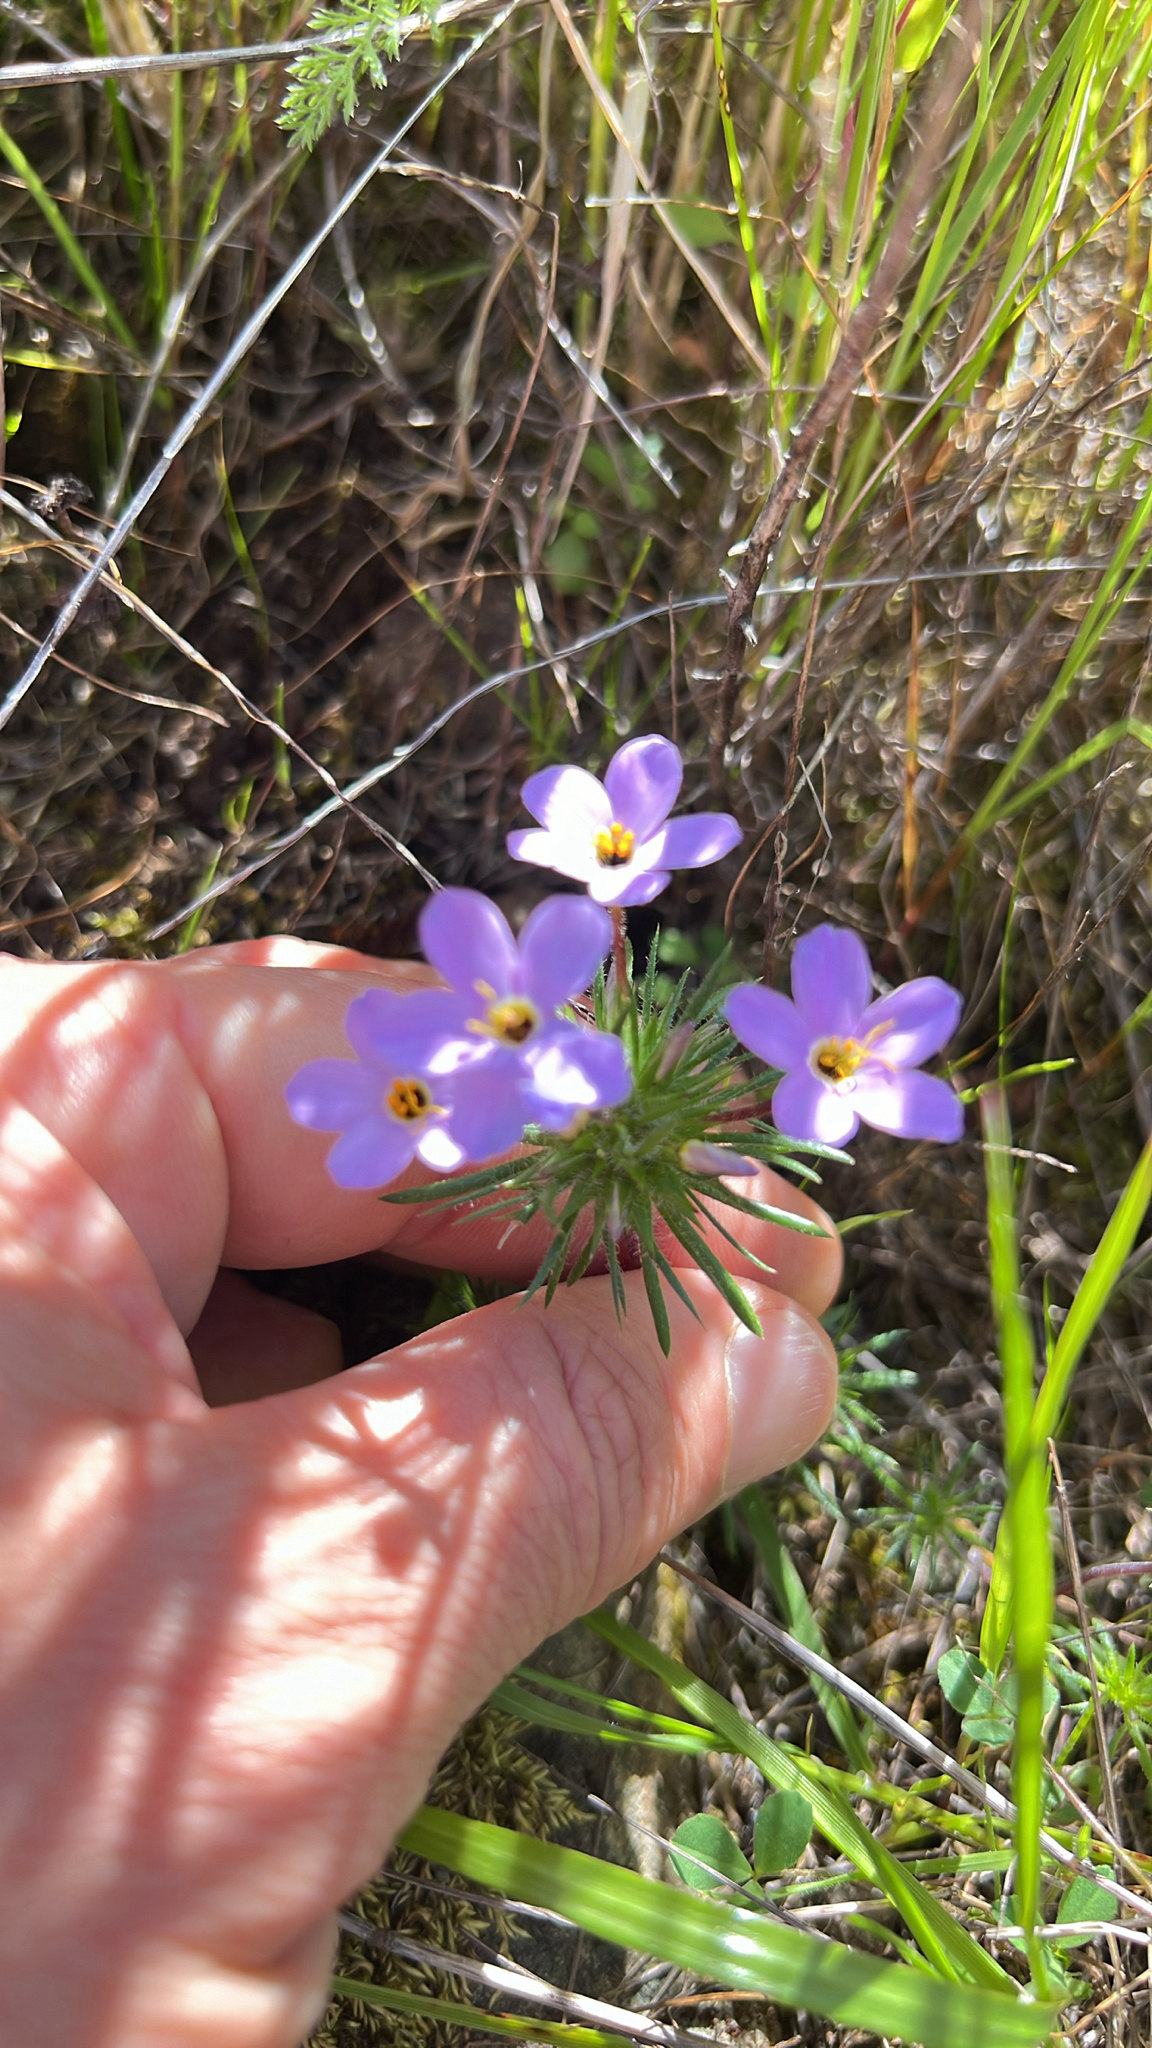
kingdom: Plantae
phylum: Tracheophyta
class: Magnoliopsida
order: Ericales
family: Polemoniaceae
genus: Leptosiphon
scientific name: Leptosiphon androsaceus
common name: False babystars
